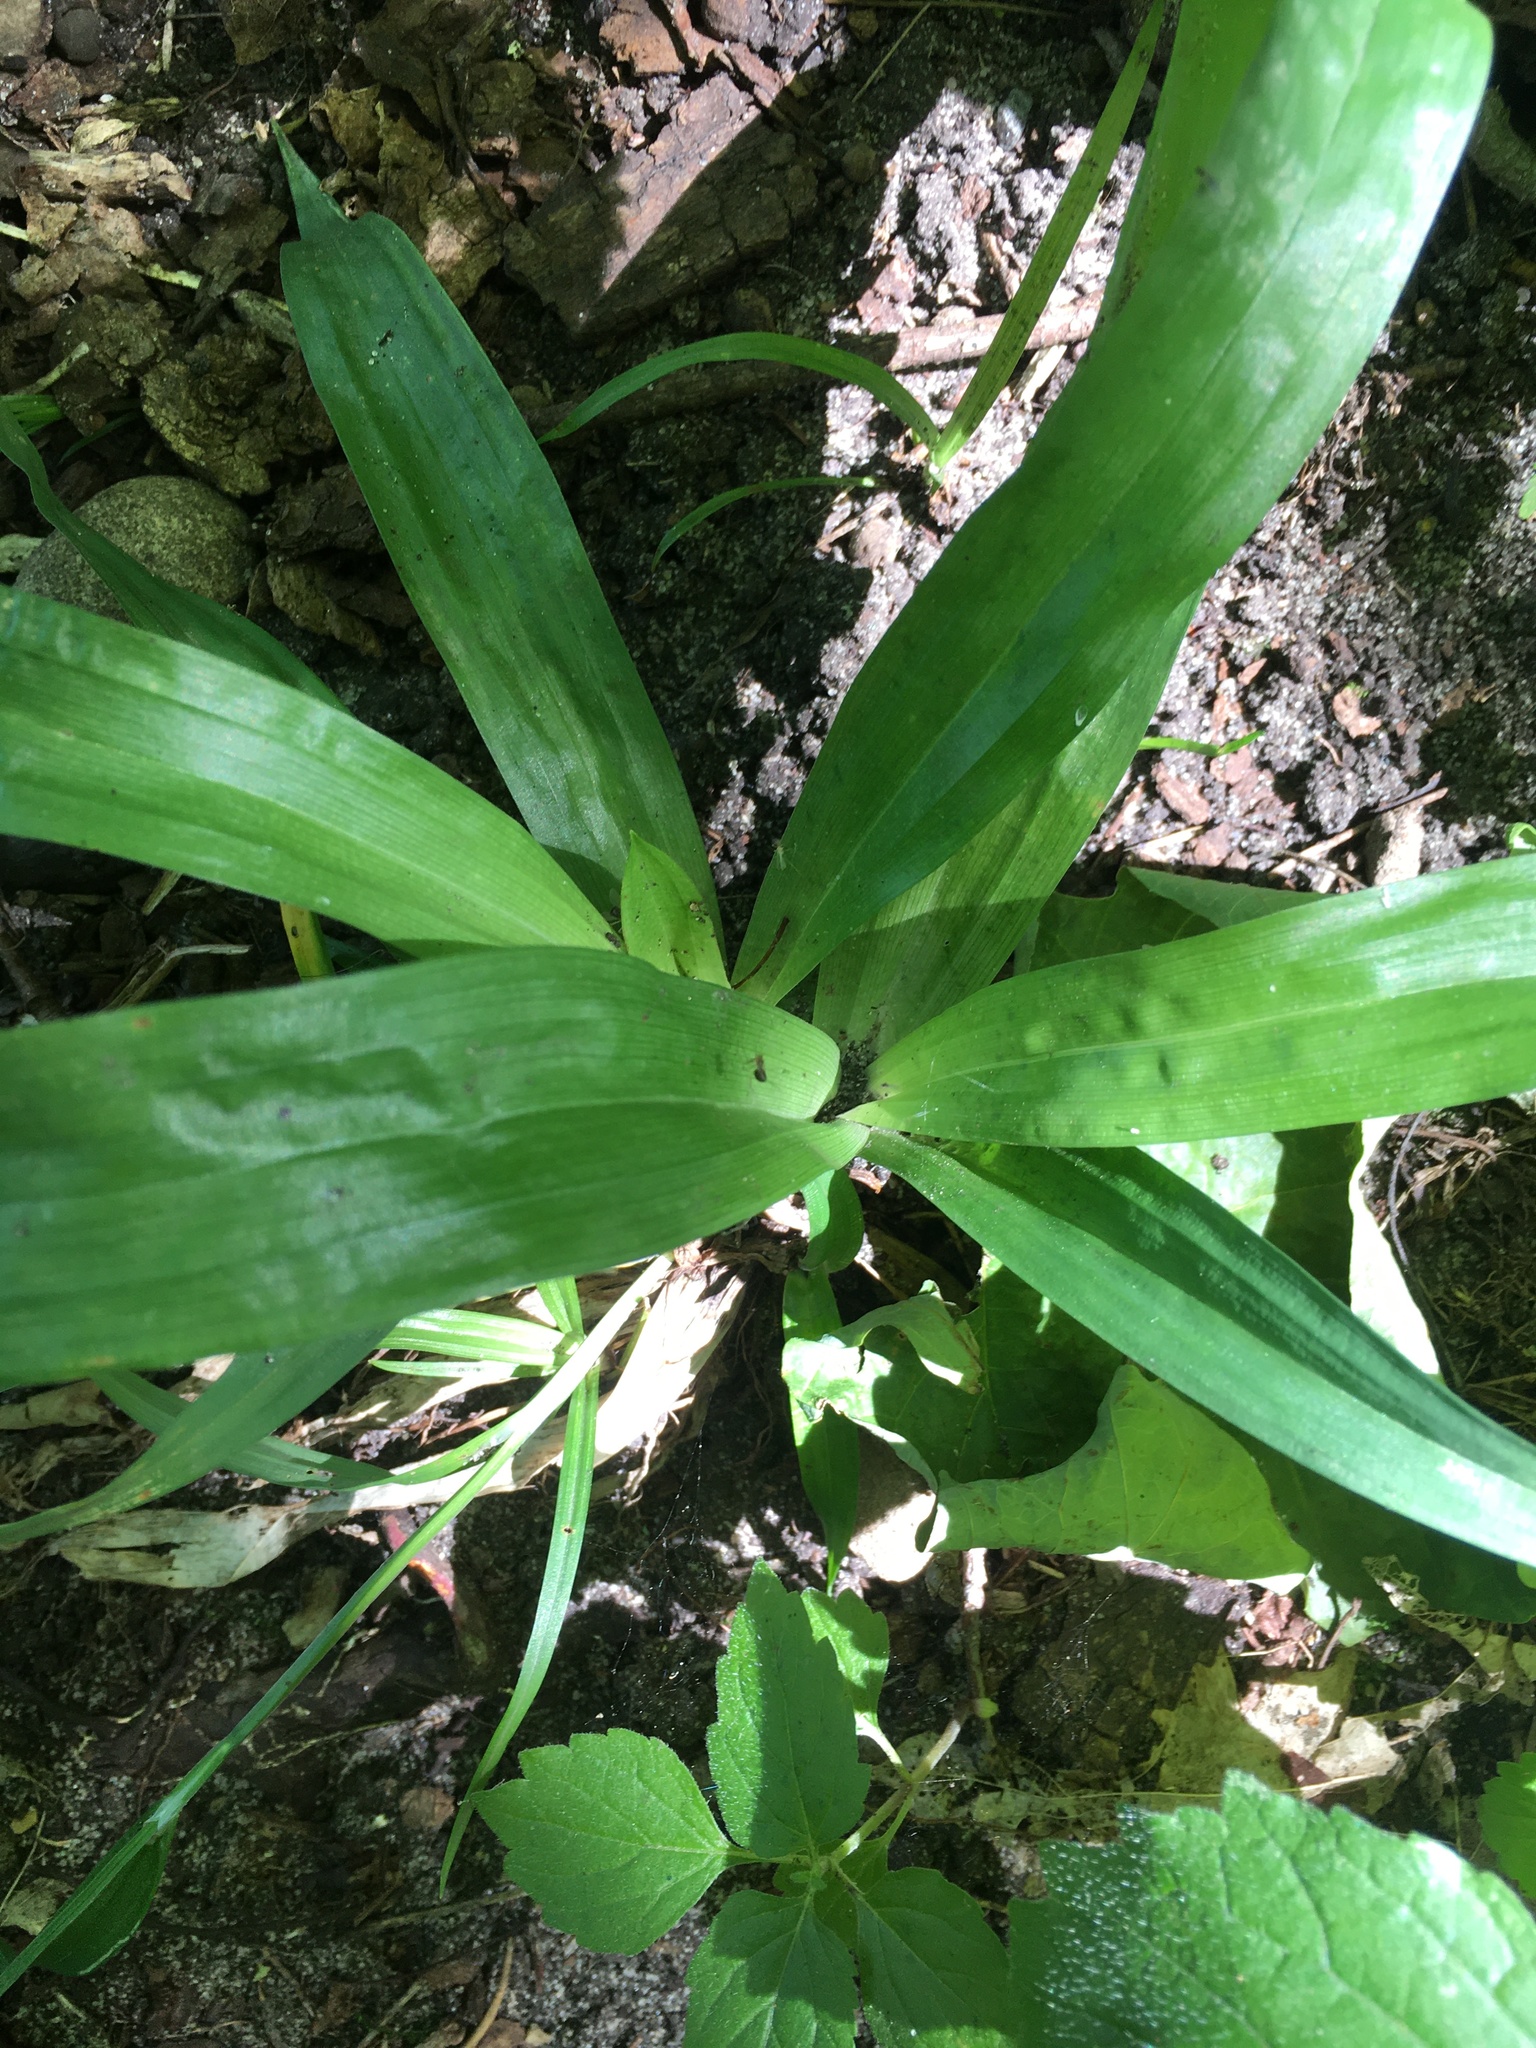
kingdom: Plantae
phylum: Tracheophyta
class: Liliopsida
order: Poales
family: Cyperaceae
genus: Carex
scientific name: Carex albursina
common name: Blunt-scale wood sedge
